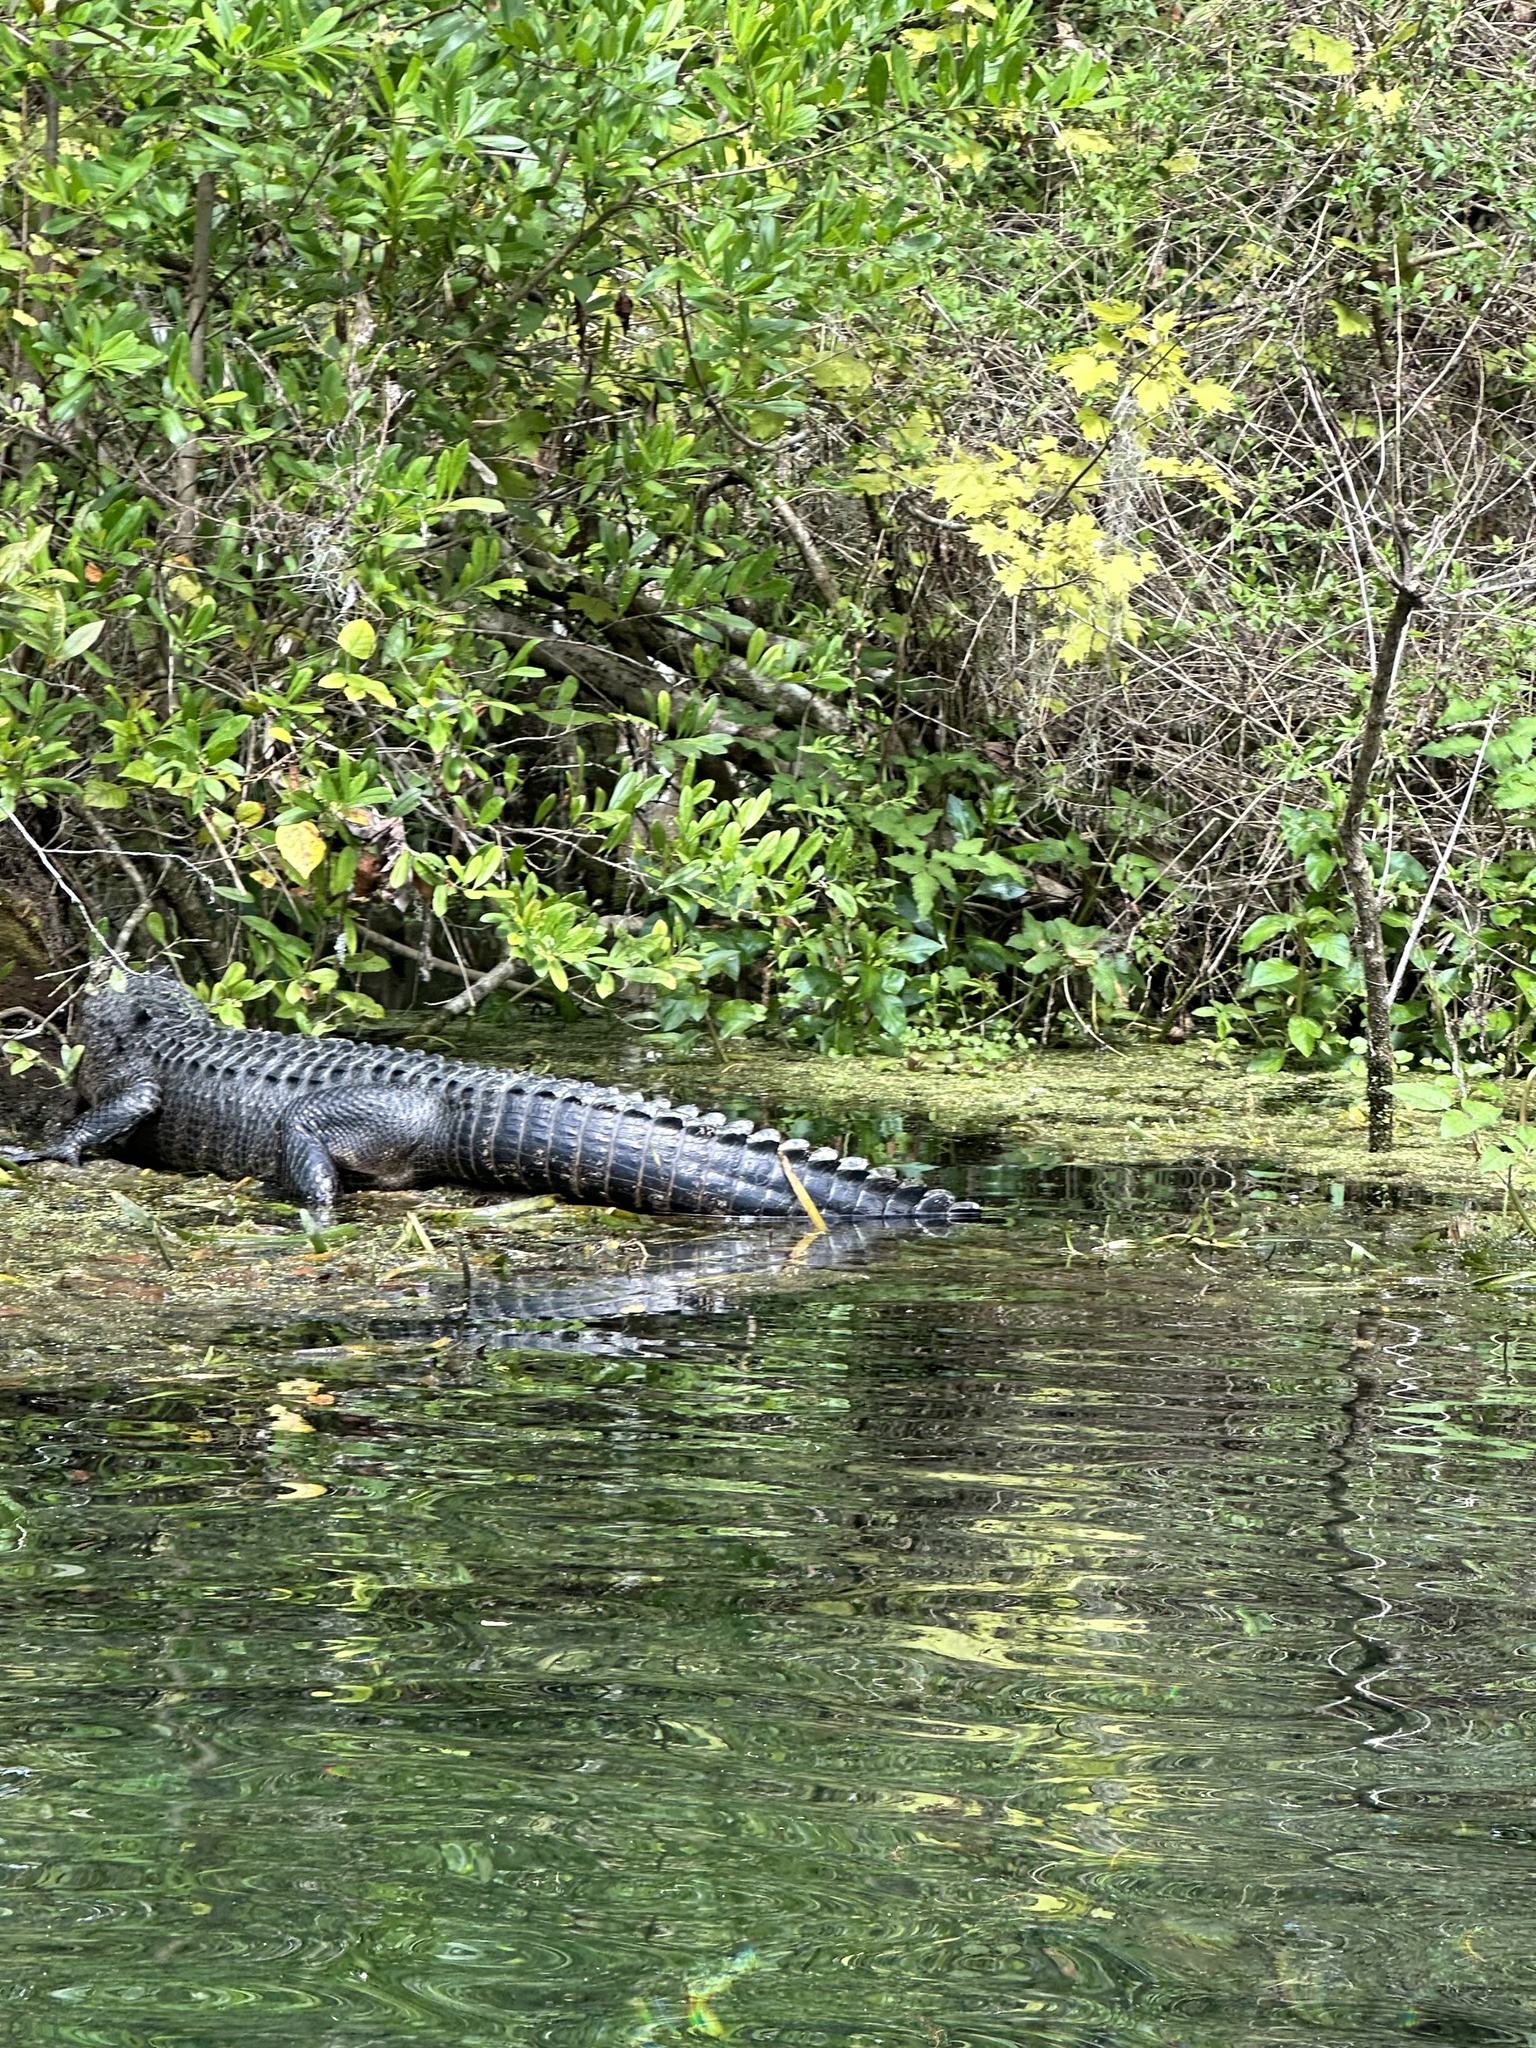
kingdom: Animalia
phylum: Chordata
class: Crocodylia
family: Alligatoridae
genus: Alligator
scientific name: Alligator mississippiensis
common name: American alligator
